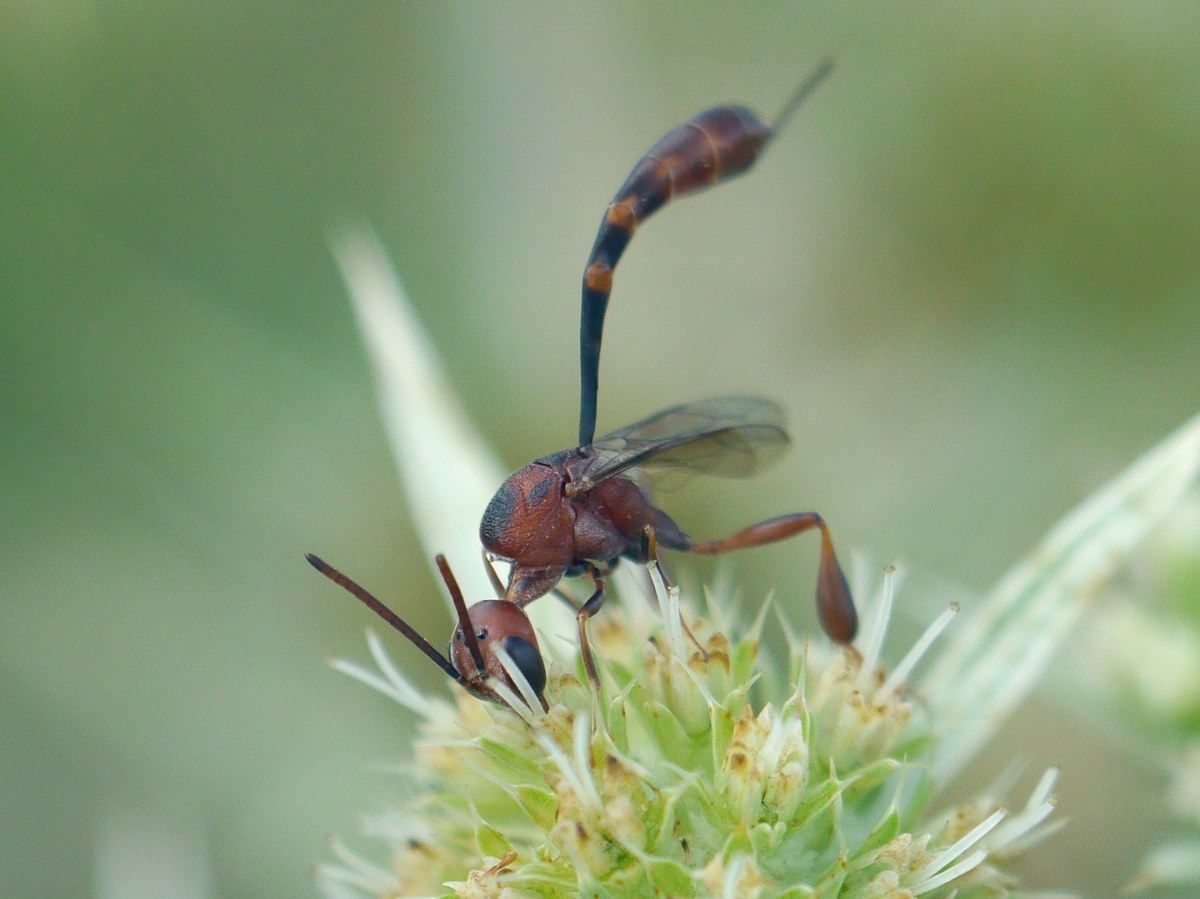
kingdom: Animalia
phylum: Arthropoda
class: Insecta
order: Hymenoptera
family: Gasteruptiidae
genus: Gasteruption
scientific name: Gasteruption hastator
